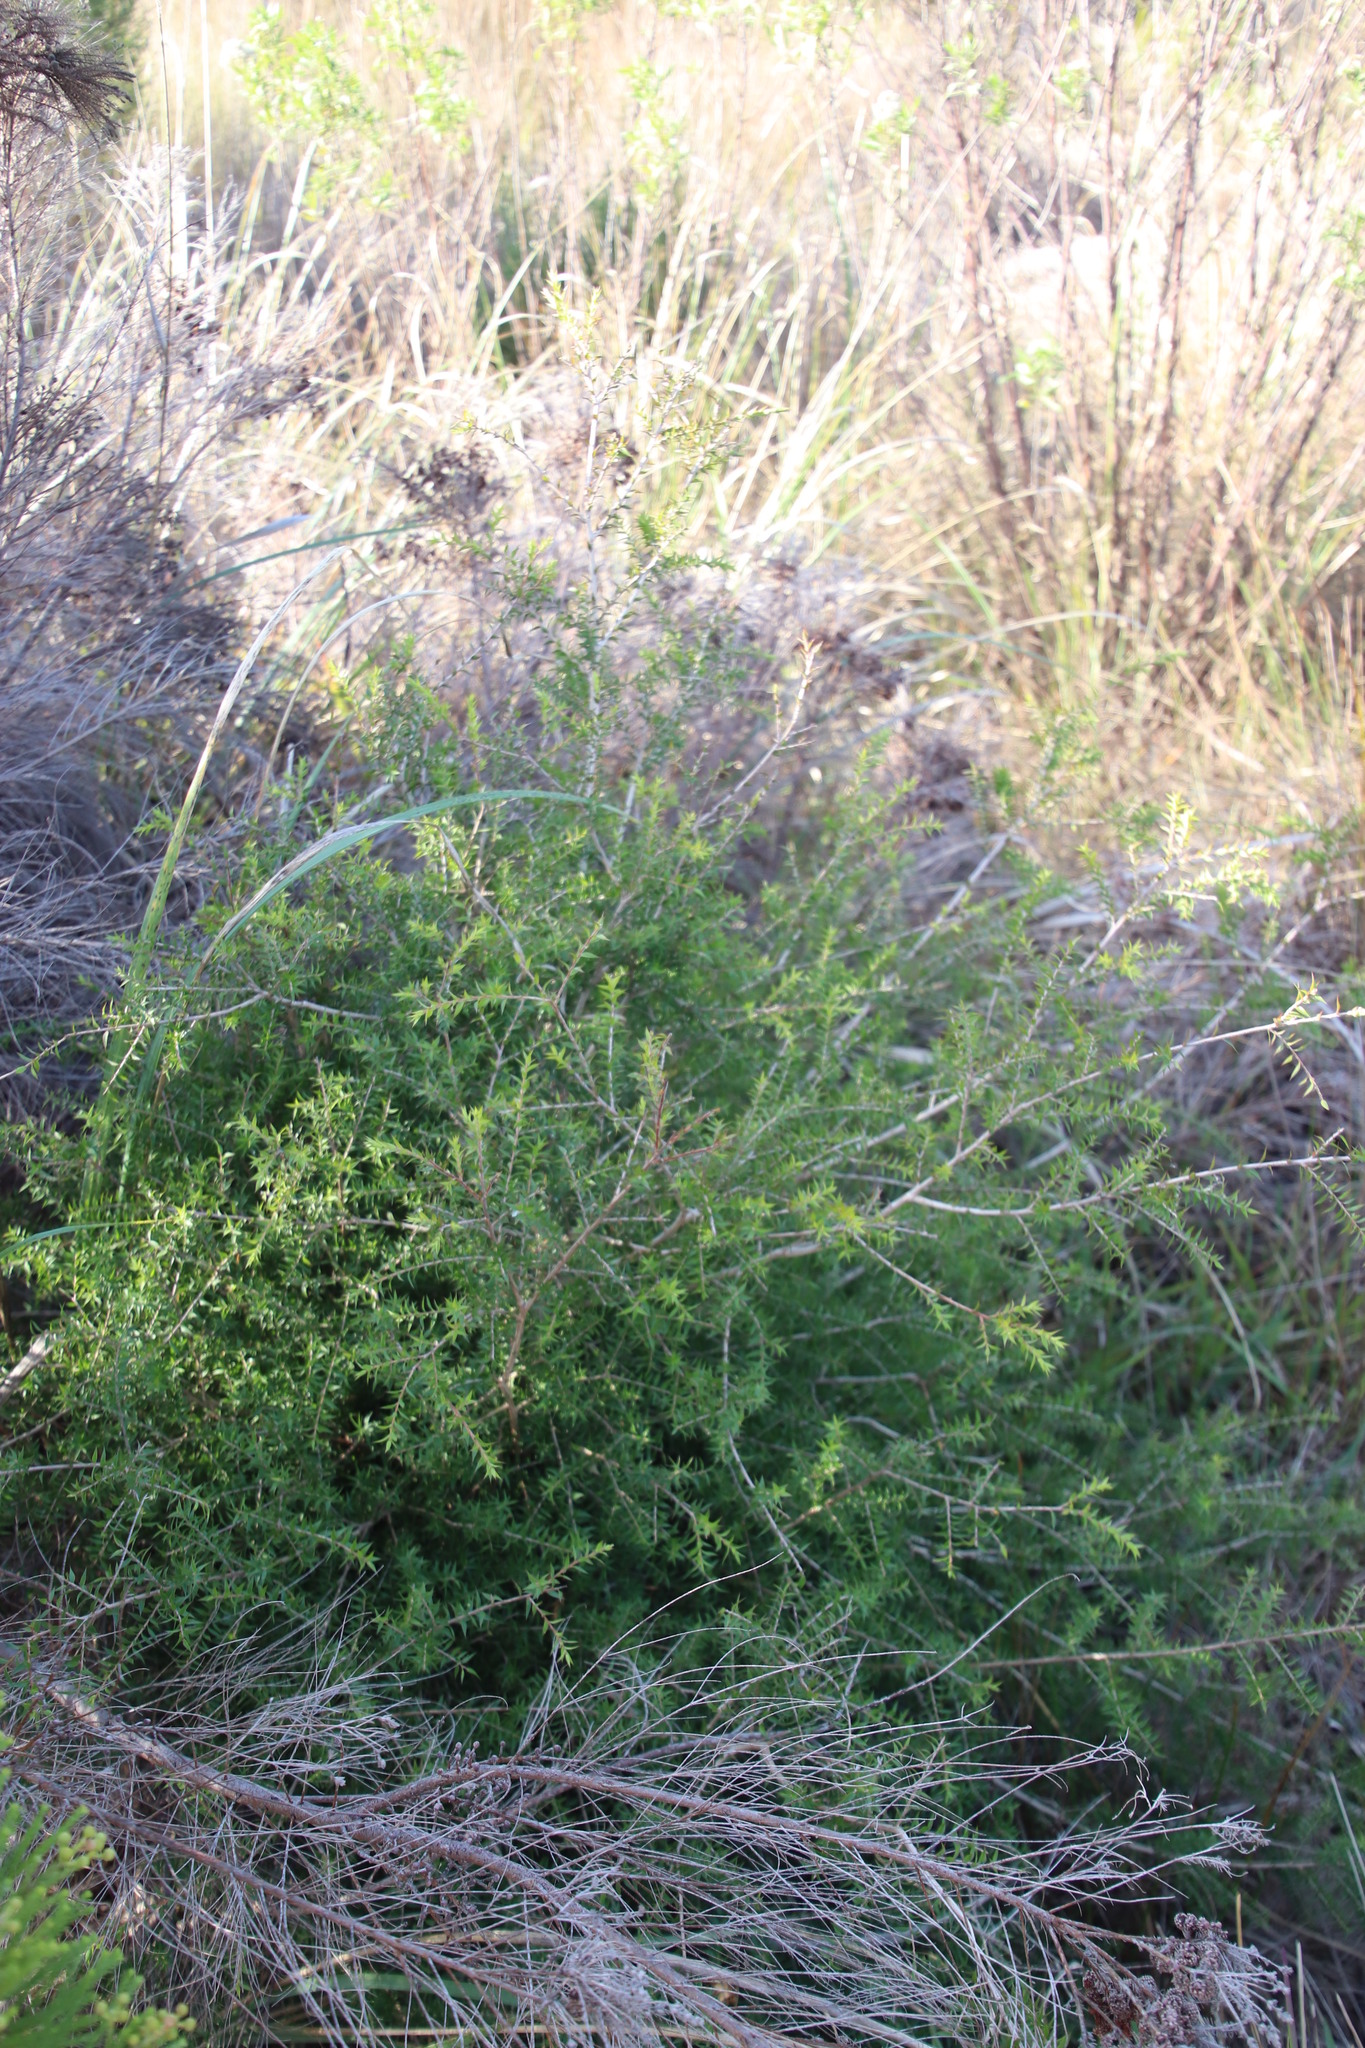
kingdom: Plantae
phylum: Tracheophyta
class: Magnoliopsida
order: Myrtales
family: Myrtaceae
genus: Melaleuca
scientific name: Melaleuca styphelioides
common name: Prickly paperbark
